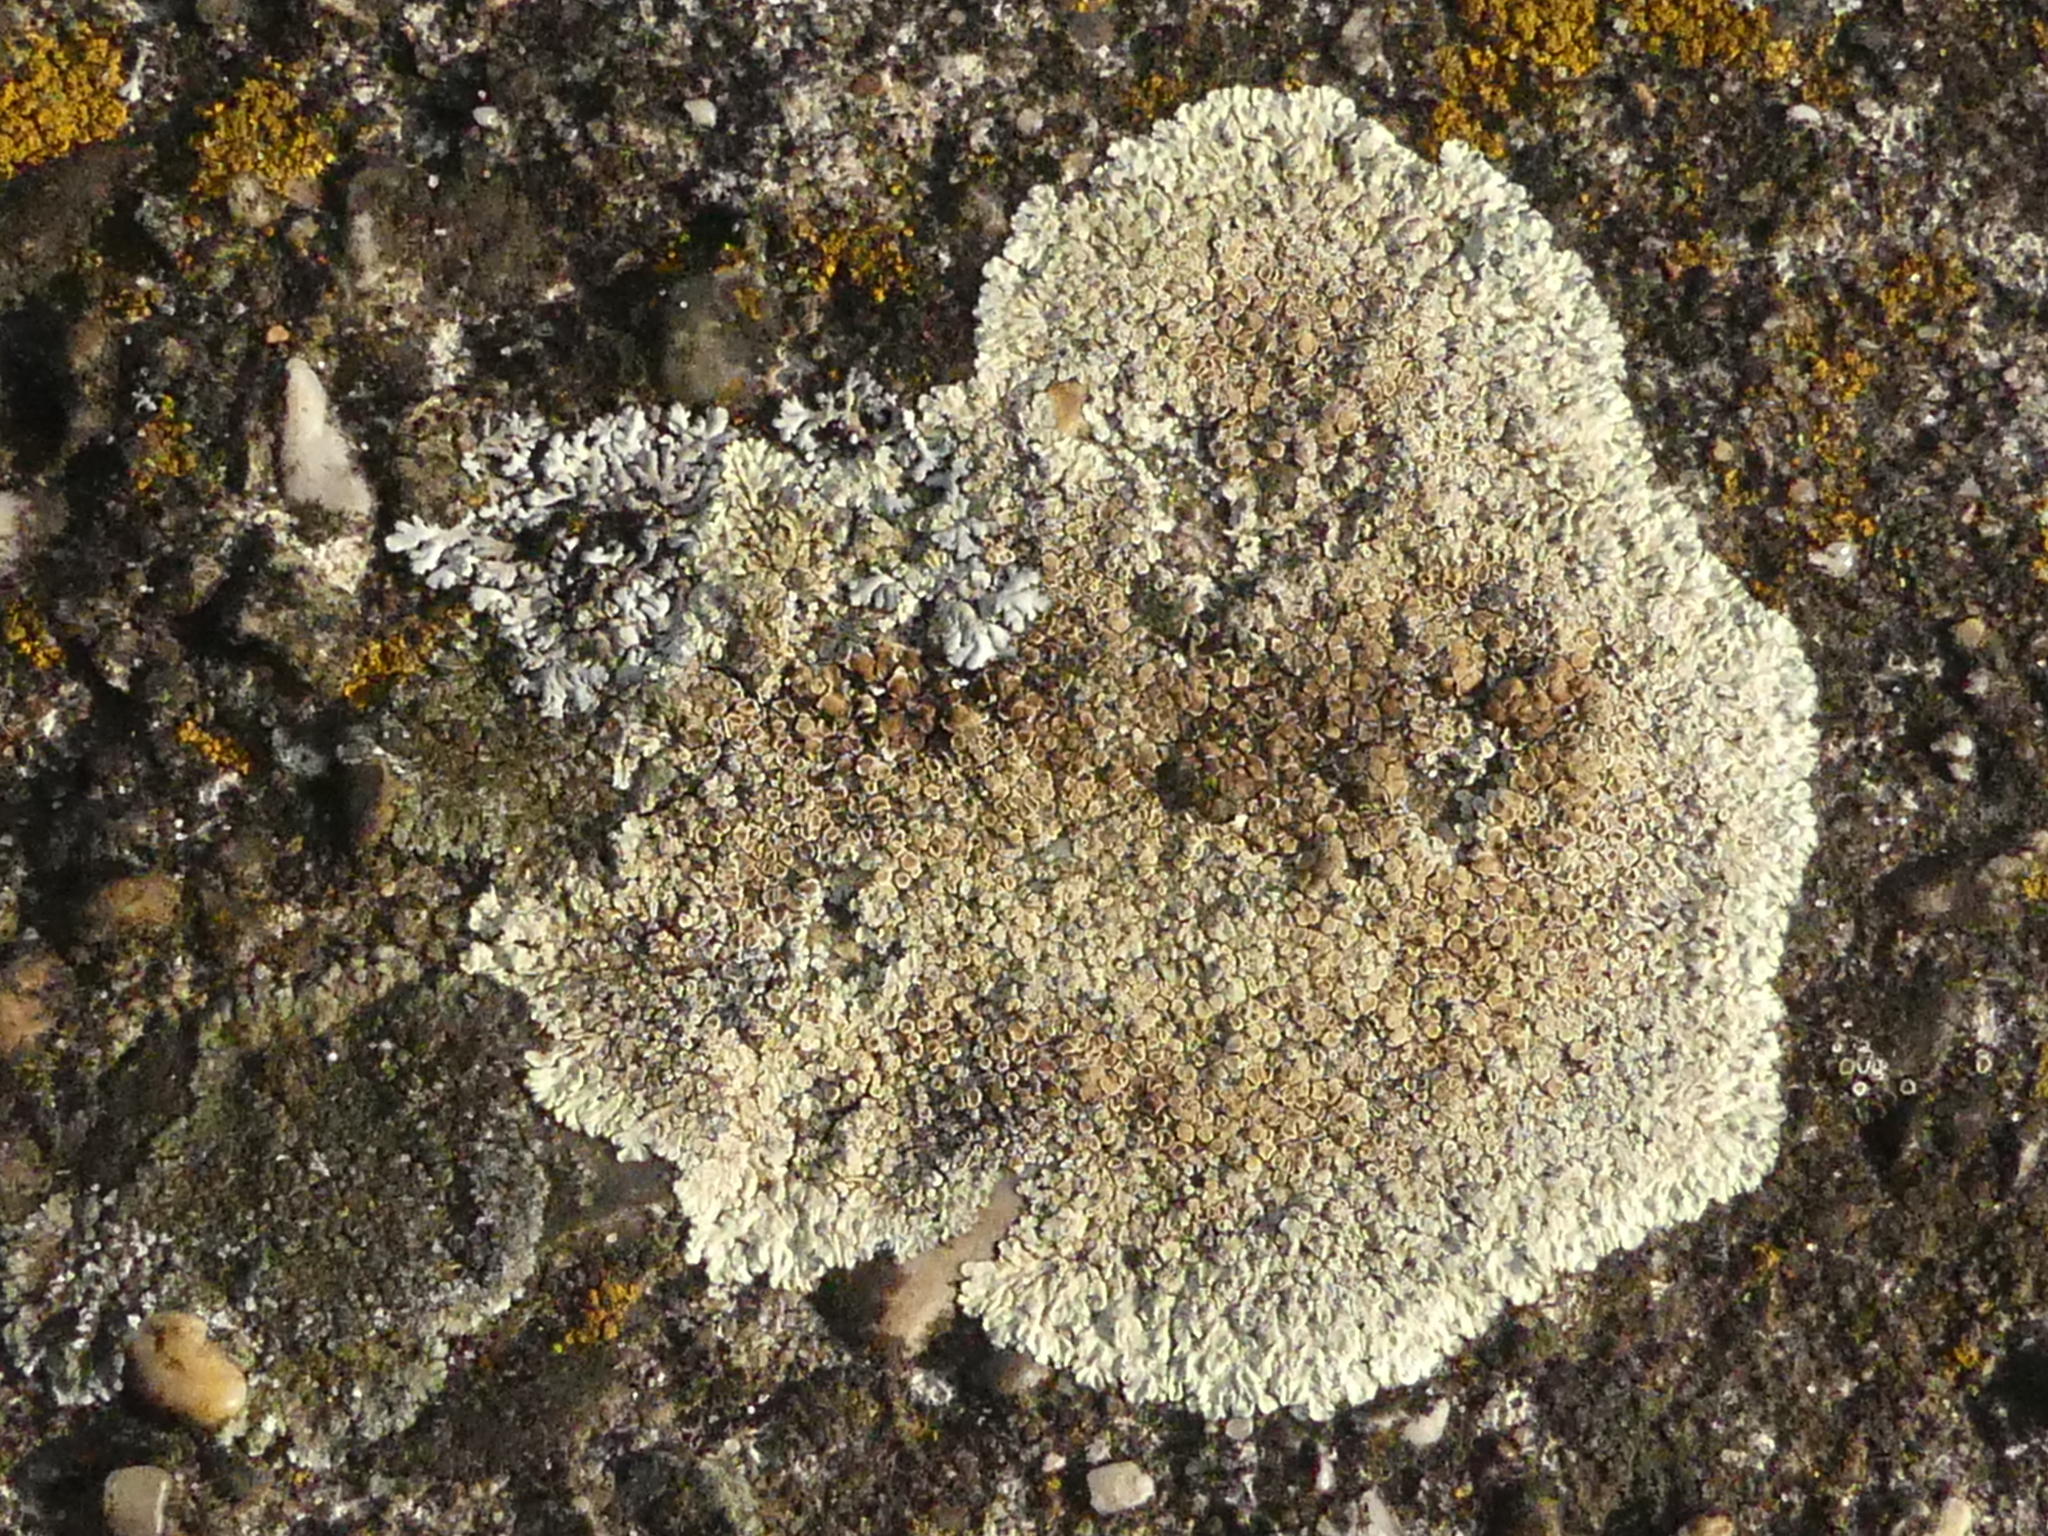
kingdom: Fungi
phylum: Ascomycota
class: Lecanoromycetes
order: Lecanorales
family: Lecanoraceae
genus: Protoparmeliopsis
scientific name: Protoparmeliopsis muralis
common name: Stonewall rim lichen
